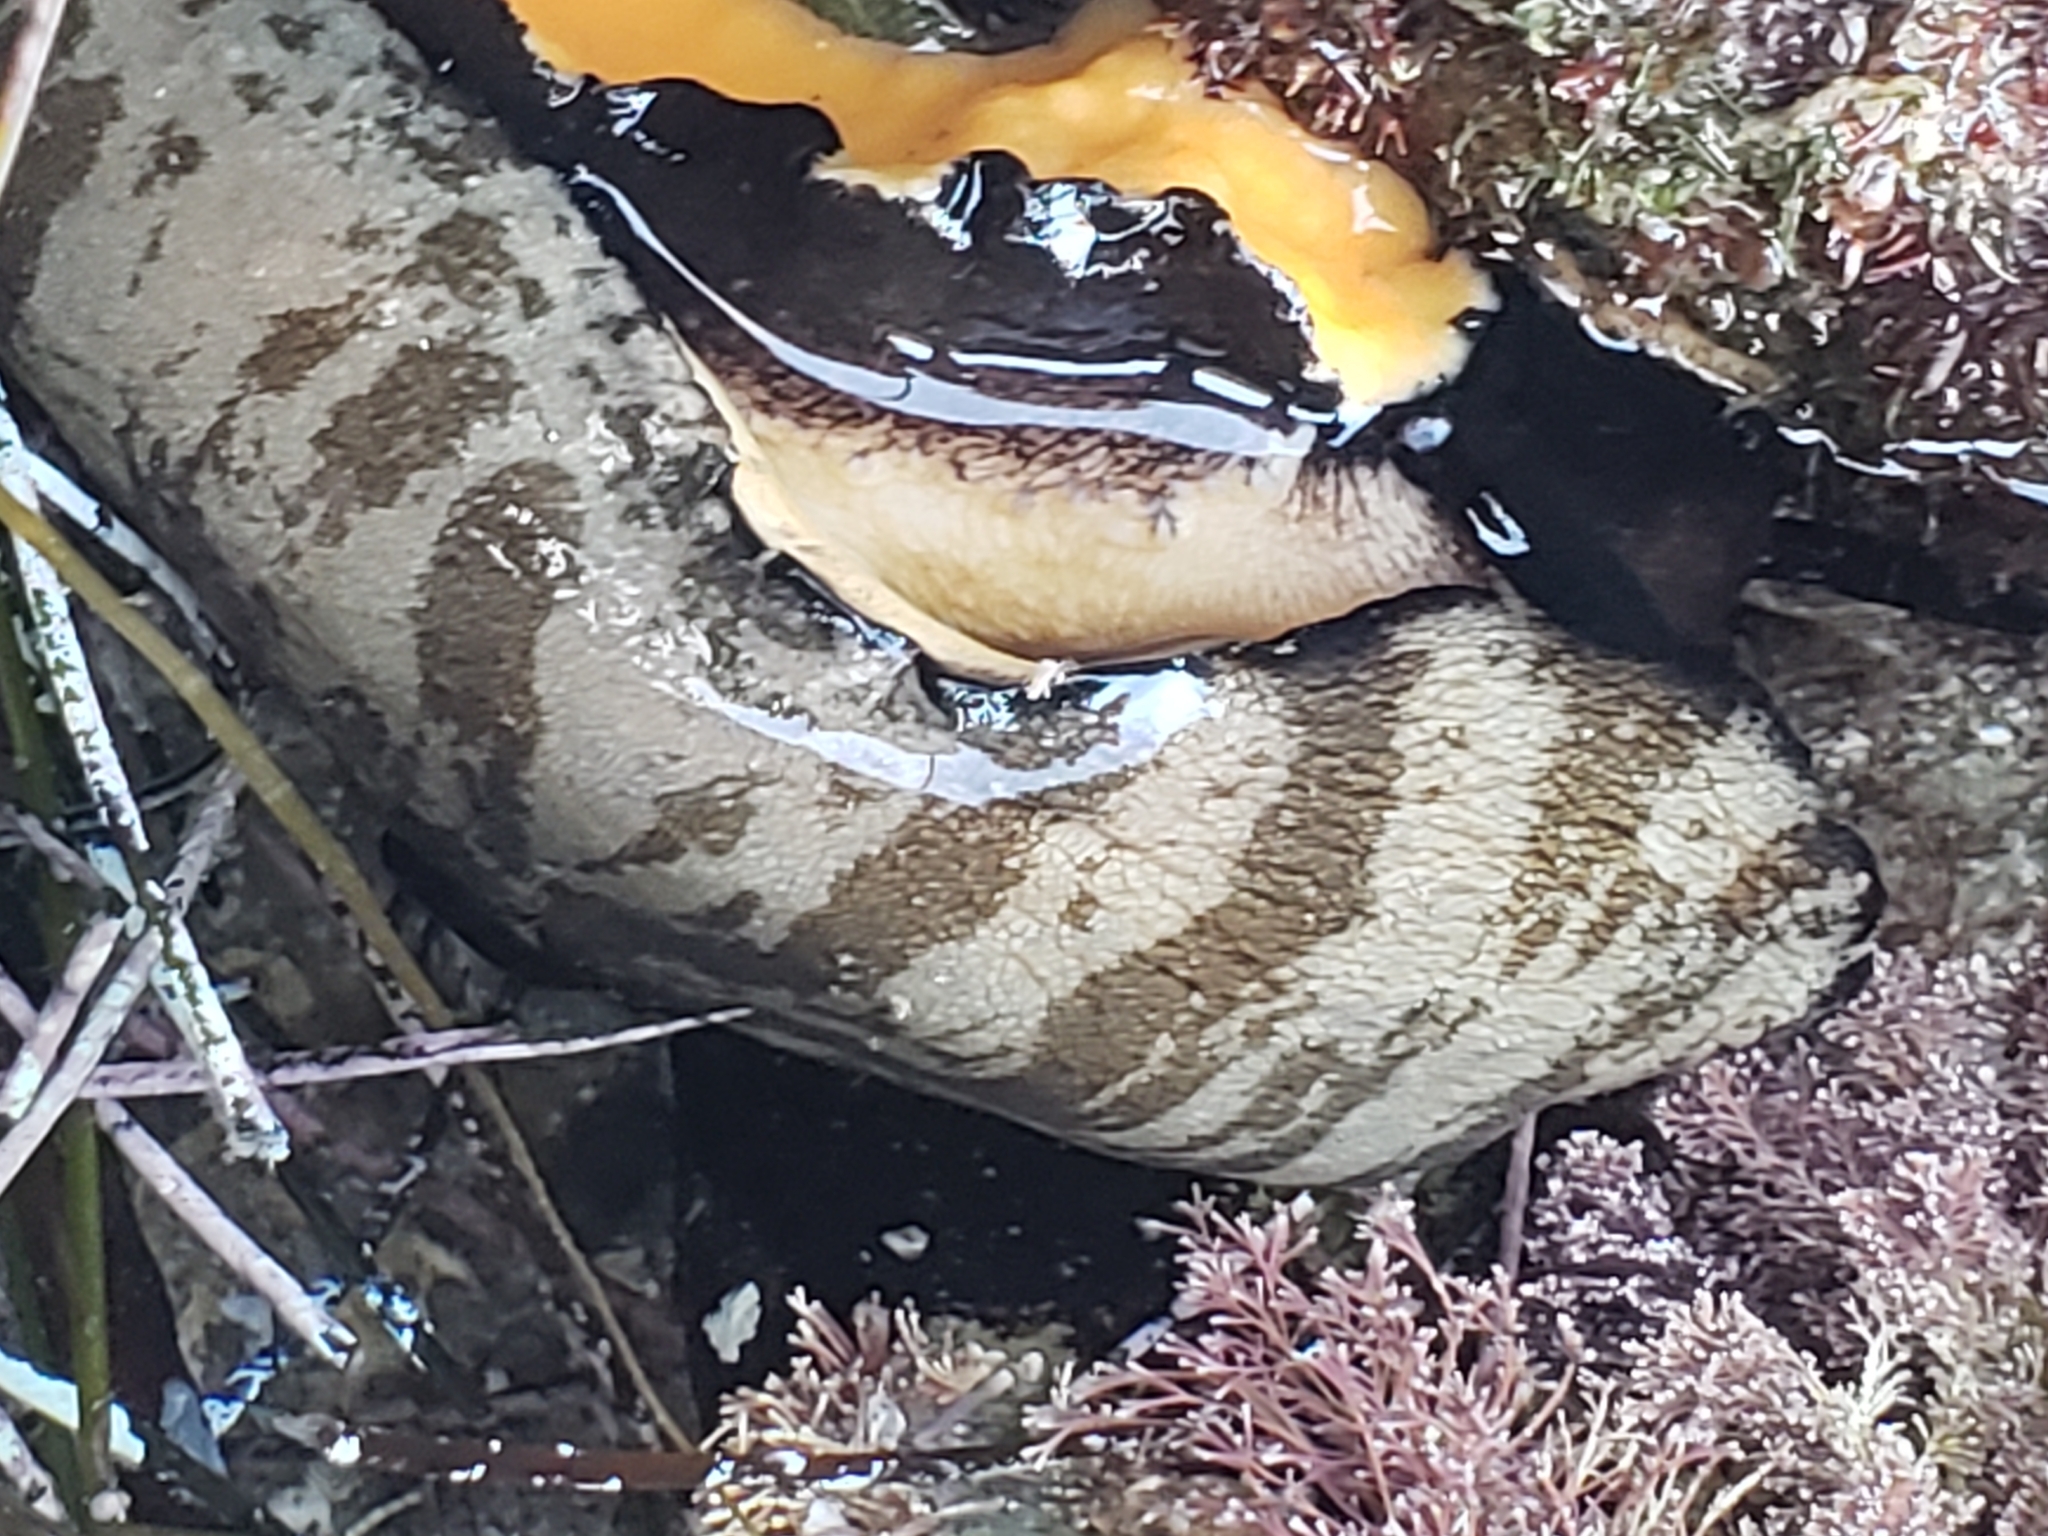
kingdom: Animalia
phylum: Mollusca
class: Gastropoda
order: Lepetellida
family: Fissurellidae
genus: Megathura
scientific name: Megathura crenulata
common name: Giant keyhole limpet
